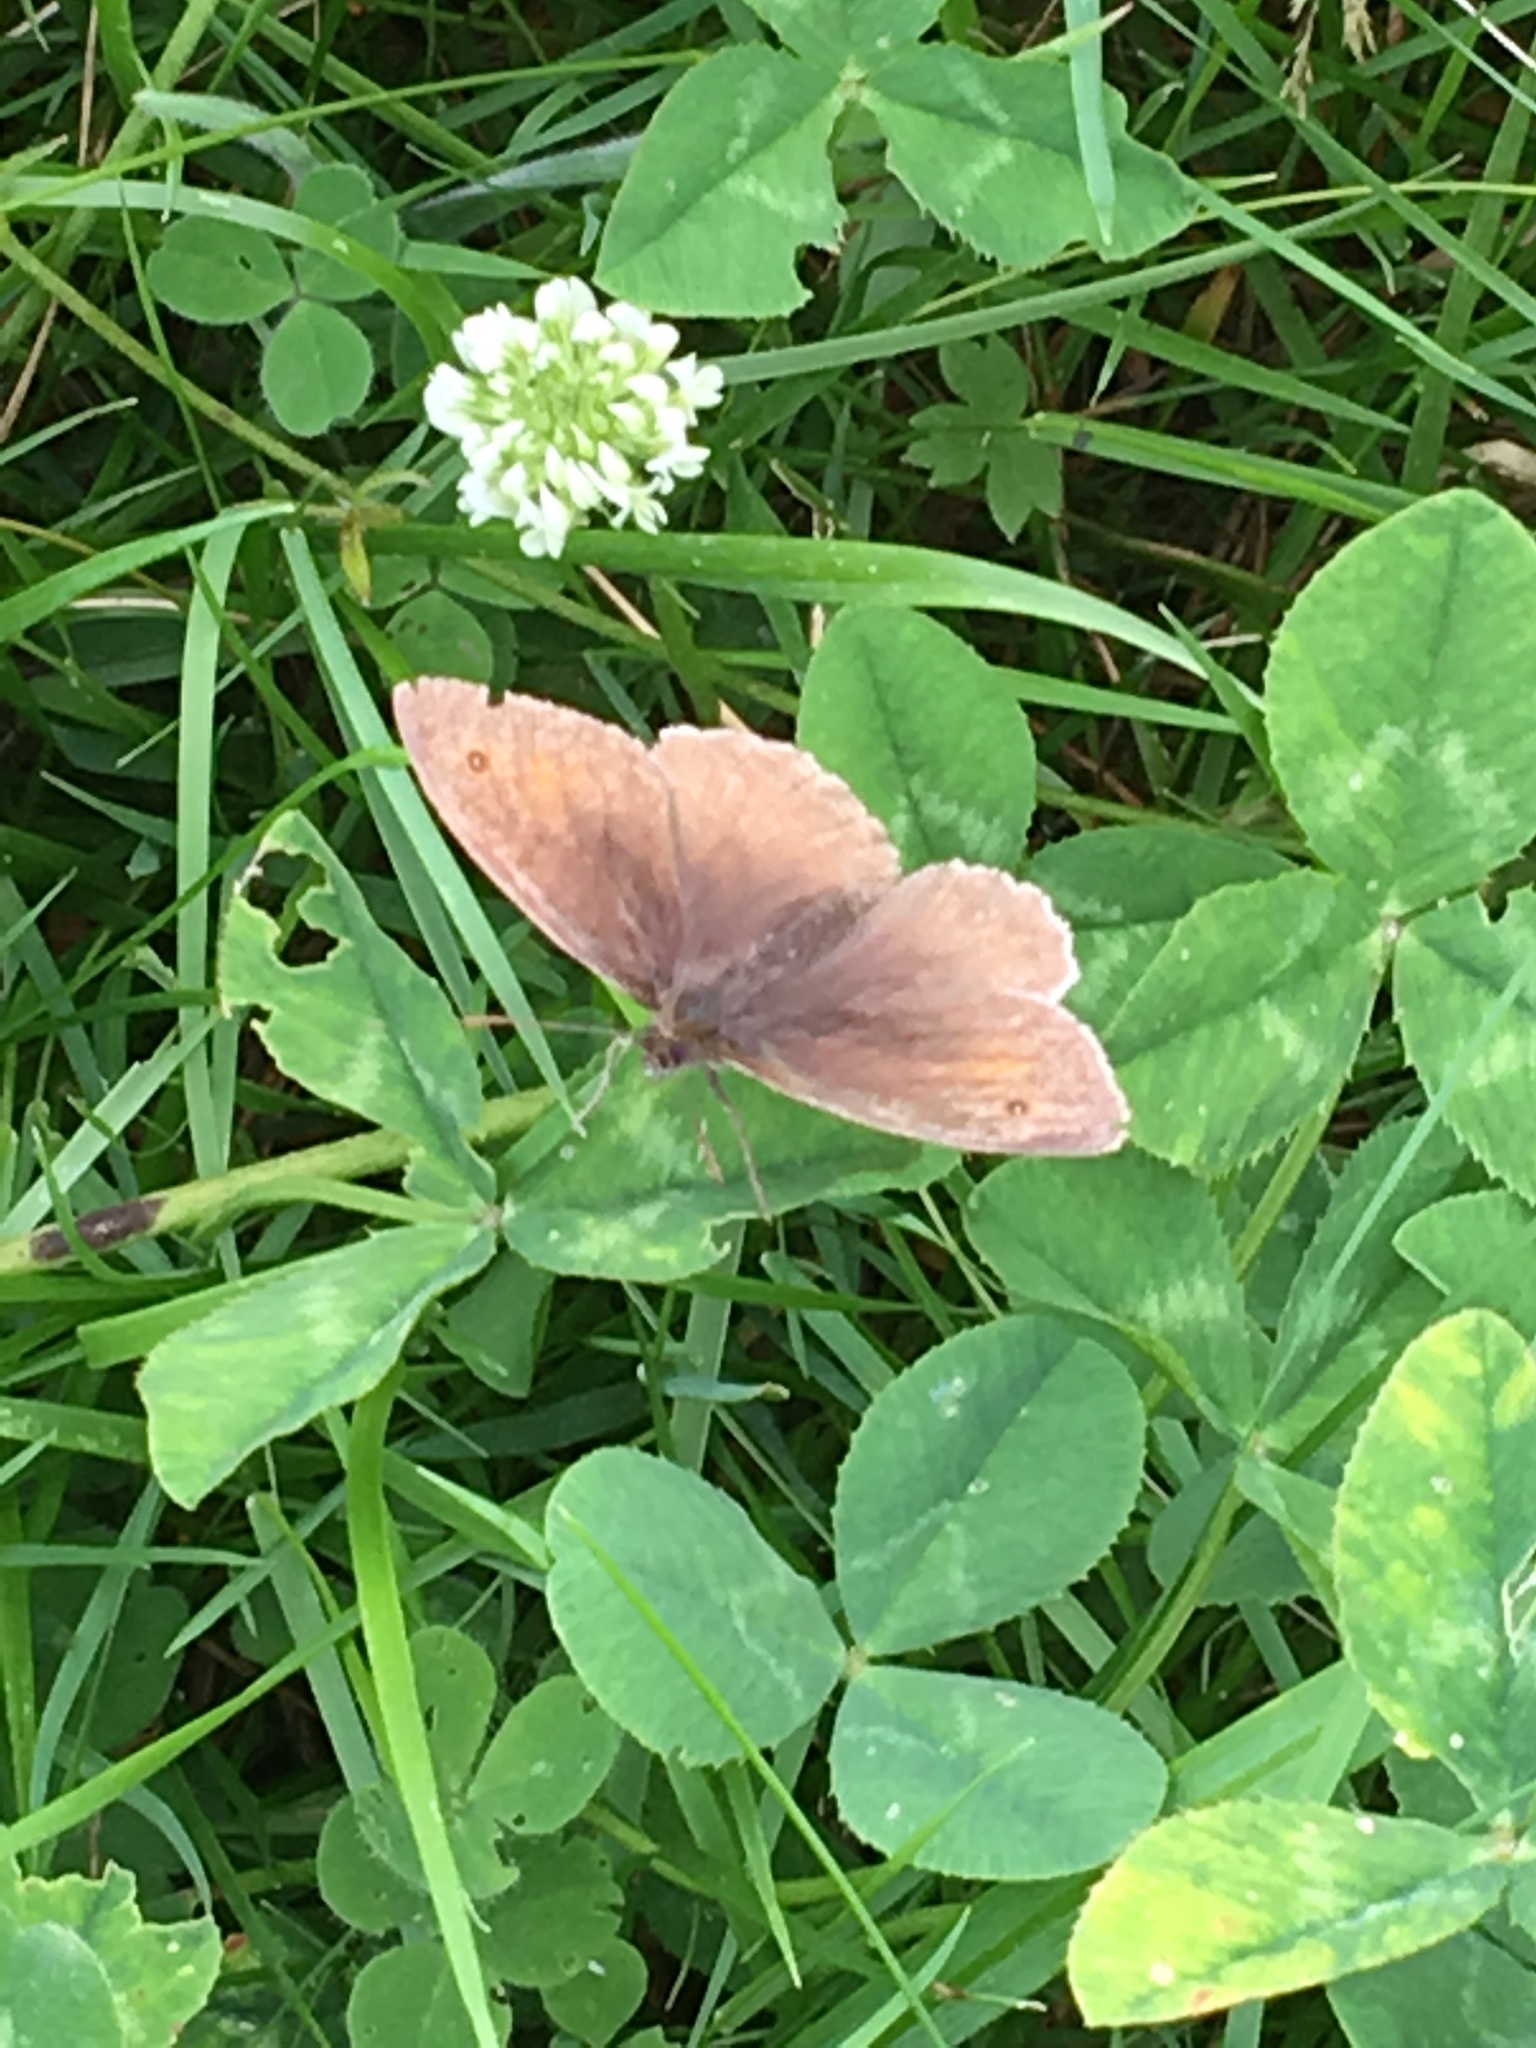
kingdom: Animalia
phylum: Arthropoda
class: Insecta
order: Lepidoptera
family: Nymphalidae
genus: Maniola
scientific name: Maniola jurtina
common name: Meadow brown
